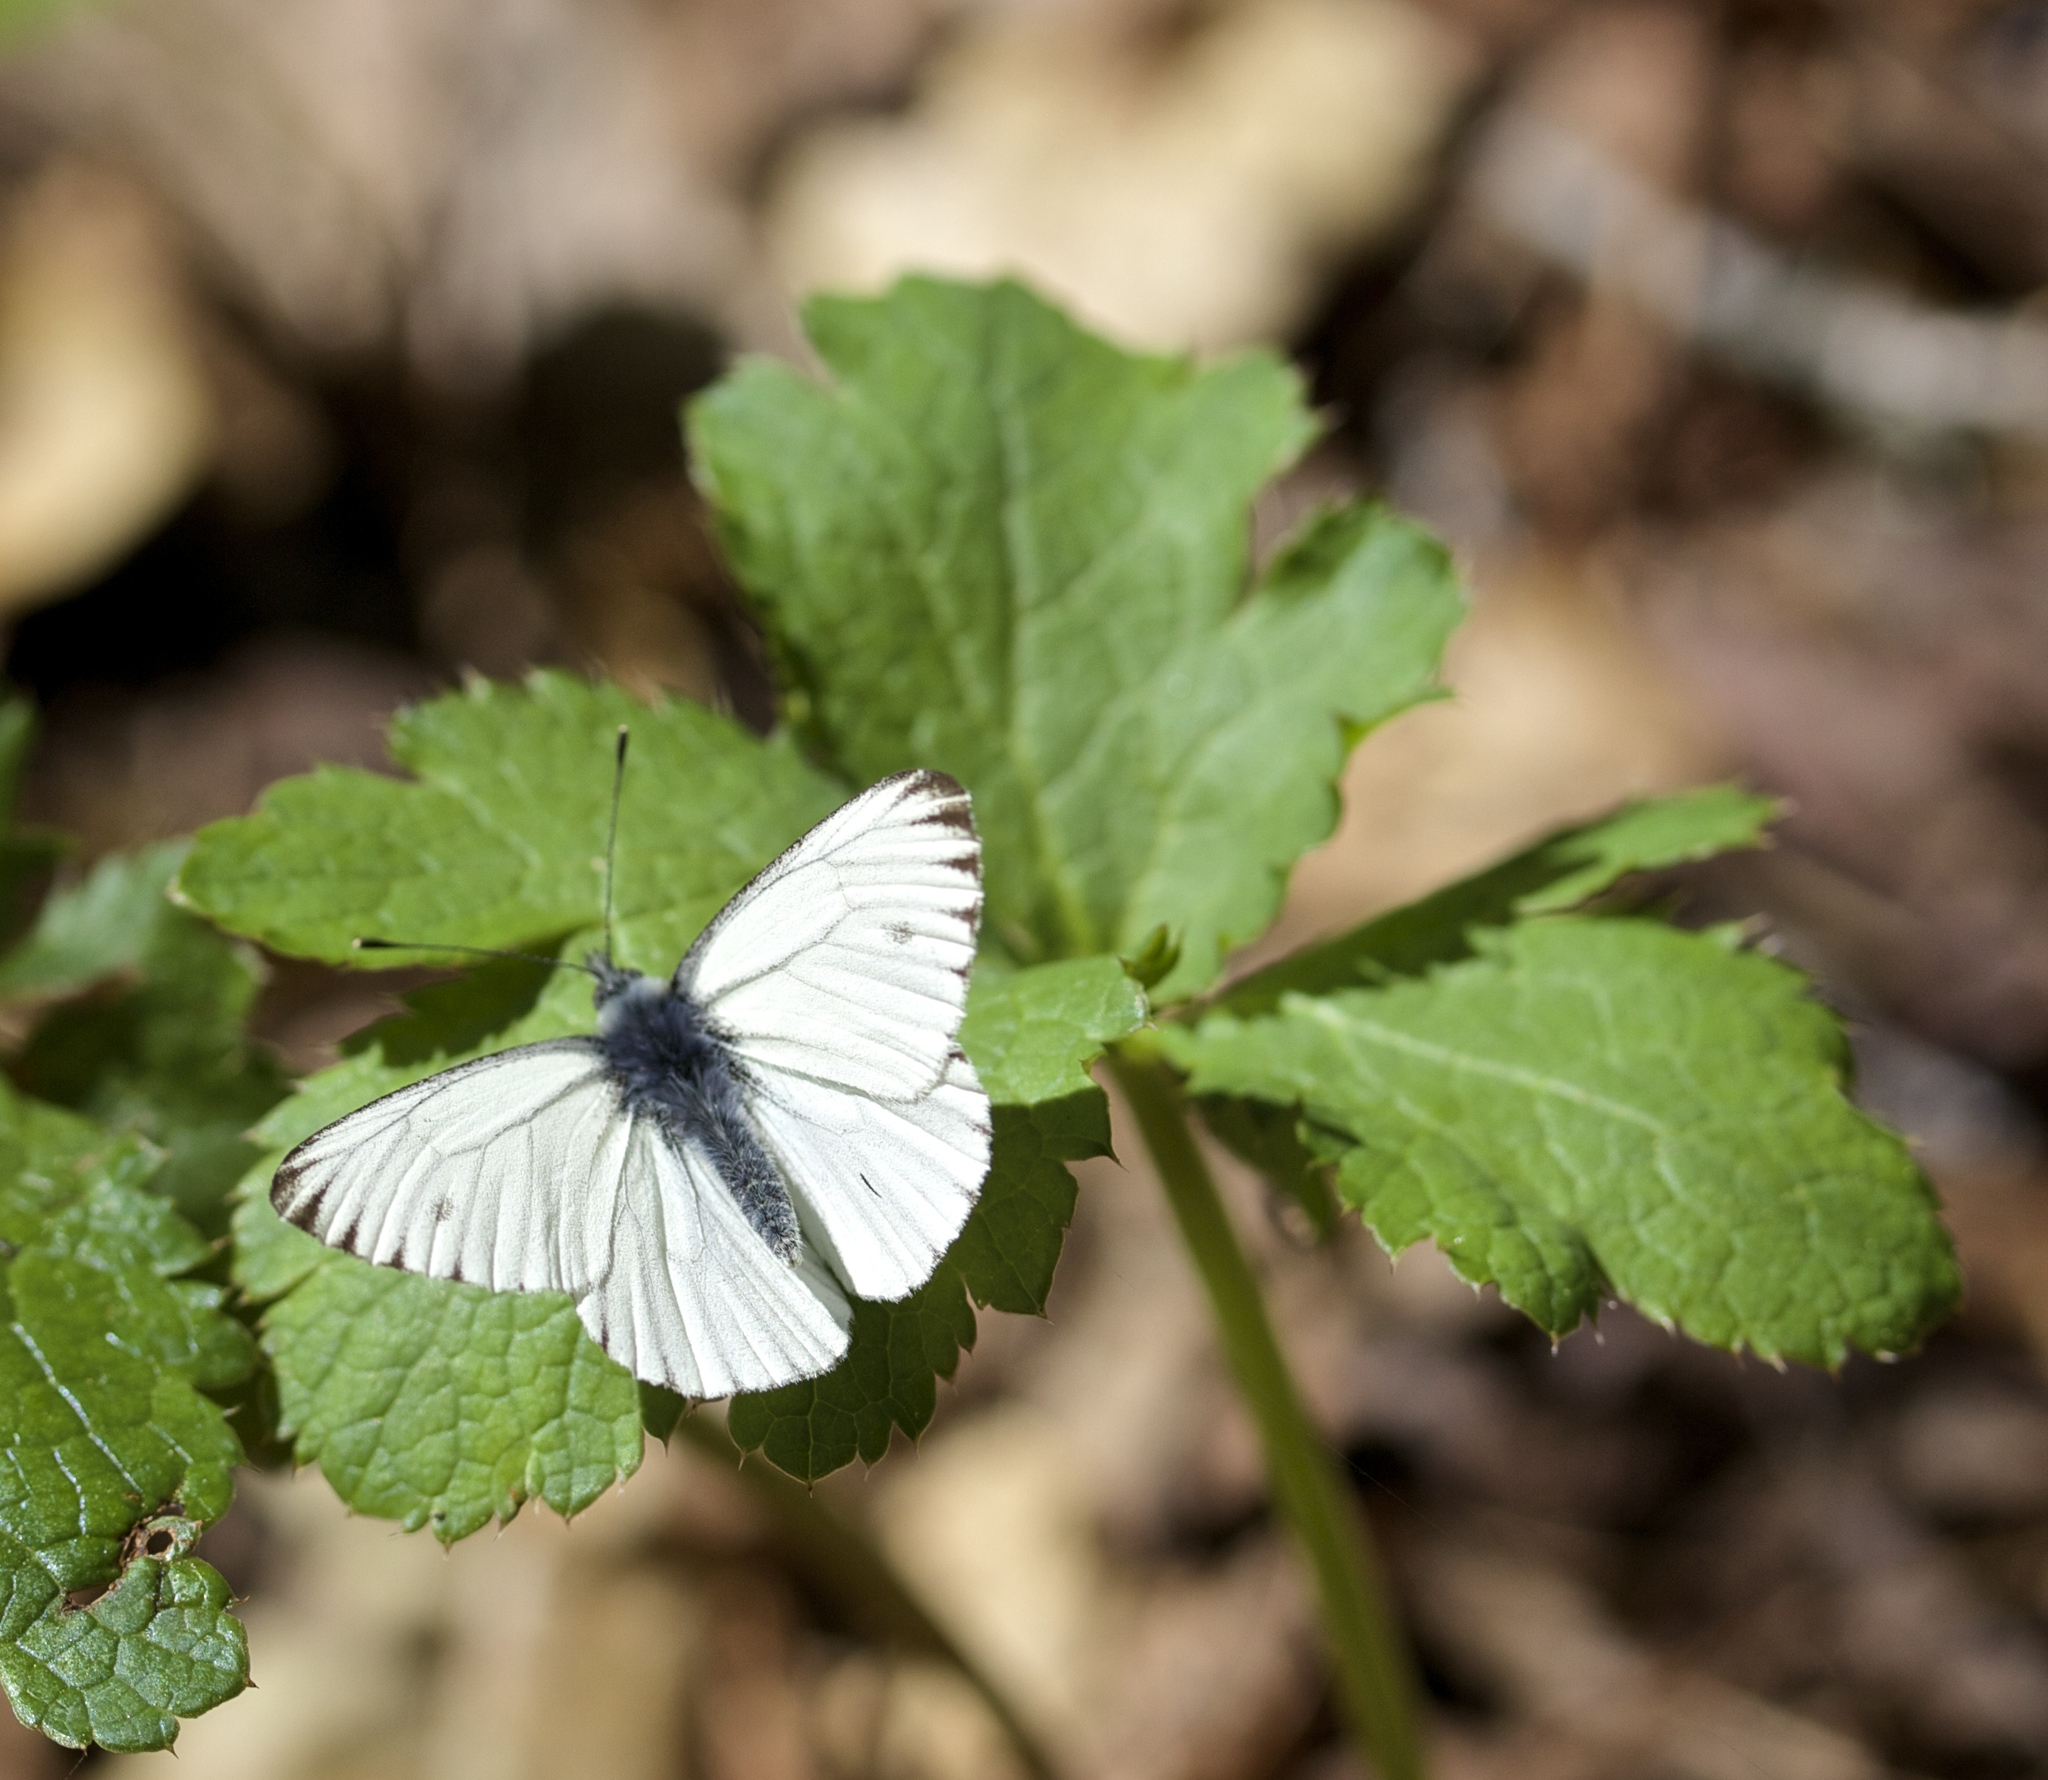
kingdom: Animalia
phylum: Arthropoda
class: Insecta
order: Lepidoptera
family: Pieridae
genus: Pieris
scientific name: Pieris marginalis
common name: Margined white
